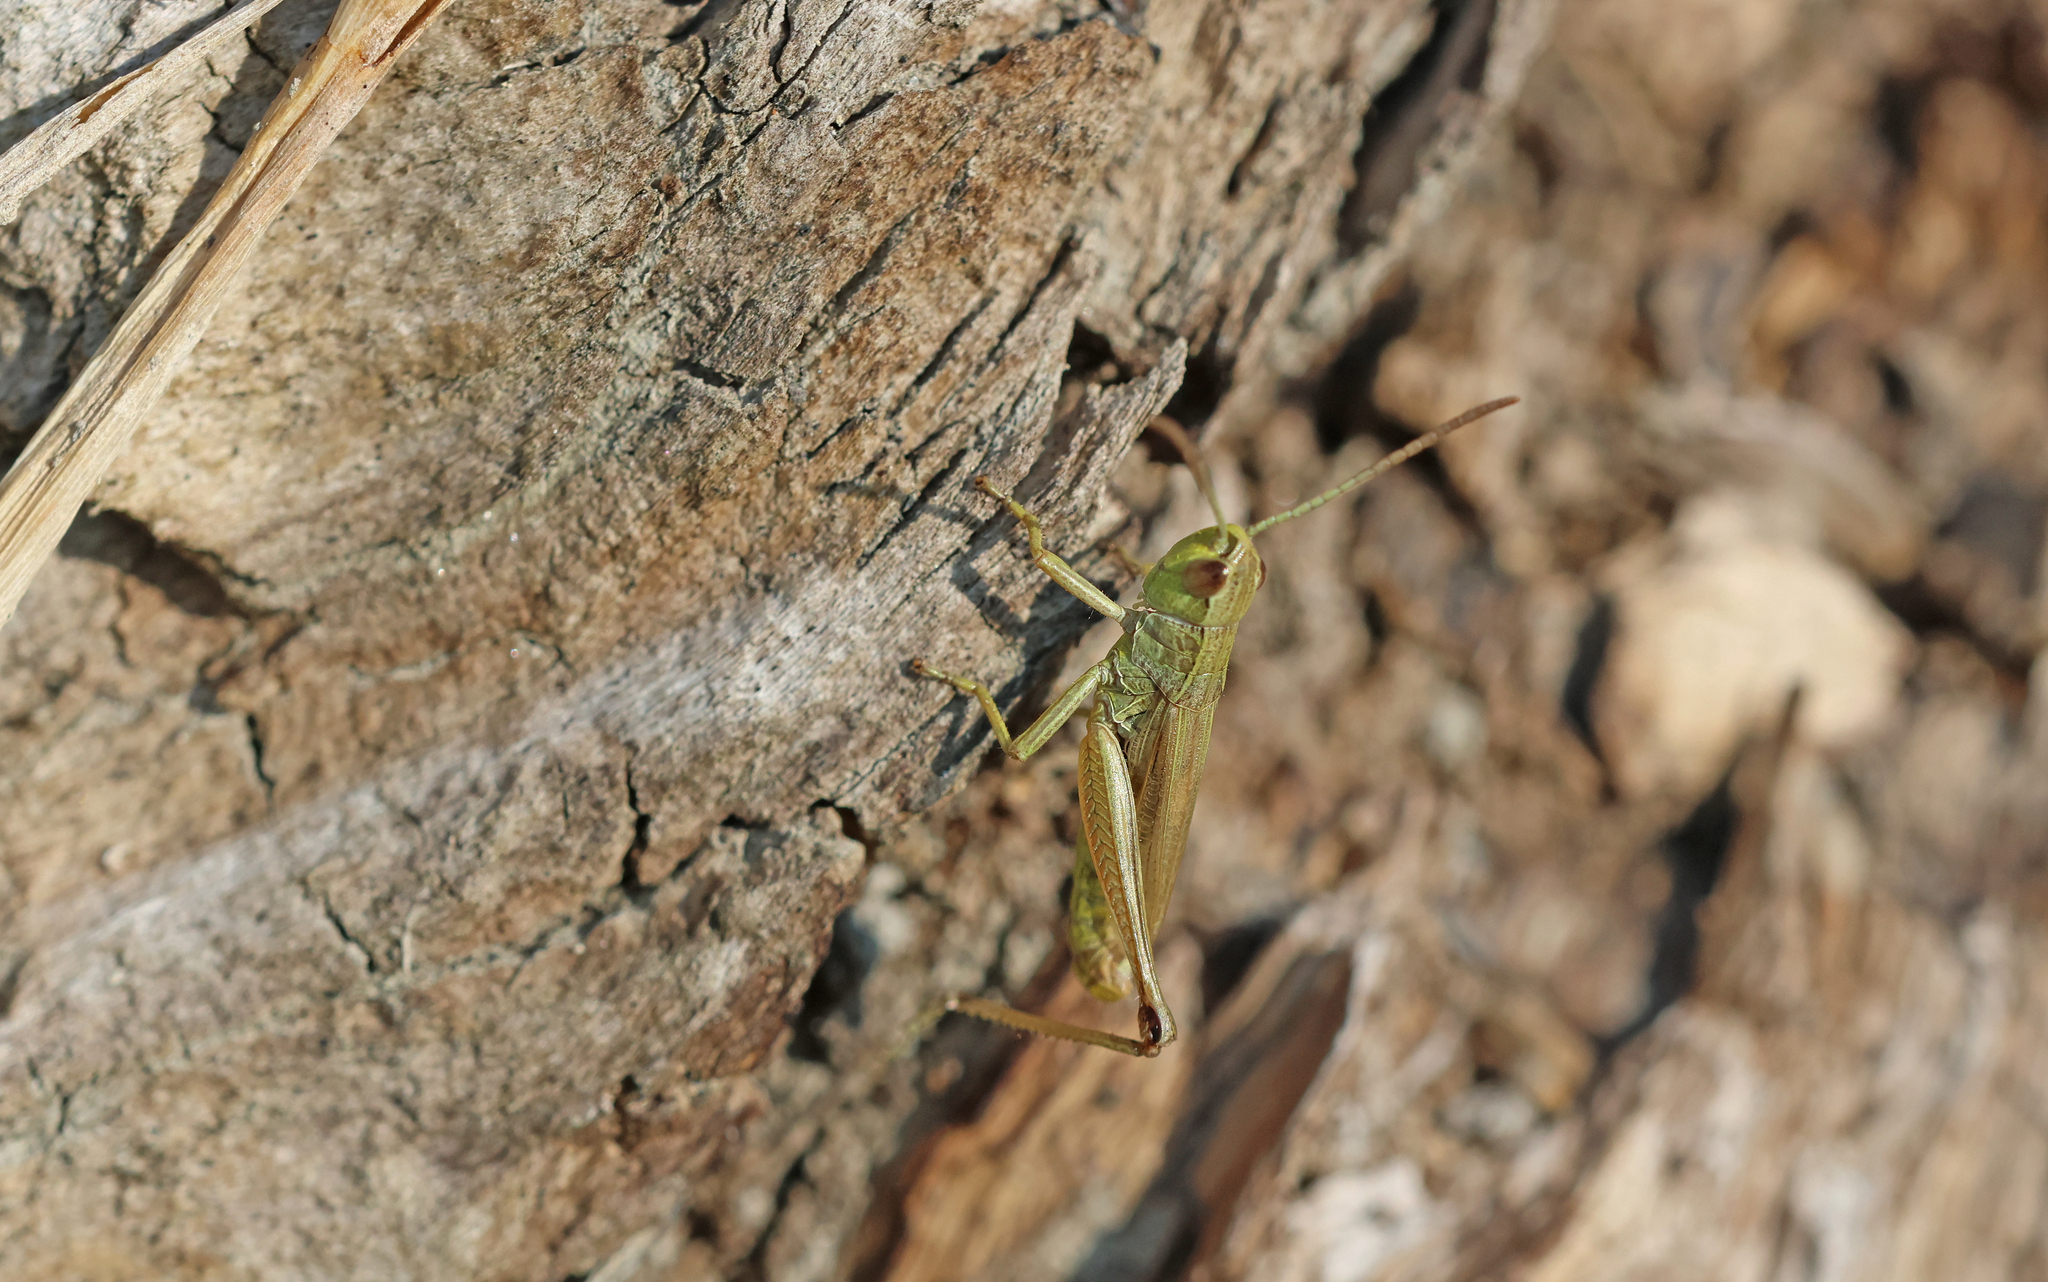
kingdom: Animalia
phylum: Arthropoda
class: Insecta
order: Orthoptera
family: Acrididae
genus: Pseudochorthippus
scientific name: Pseudochorthippus parallelus
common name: Meadow grasshopper
